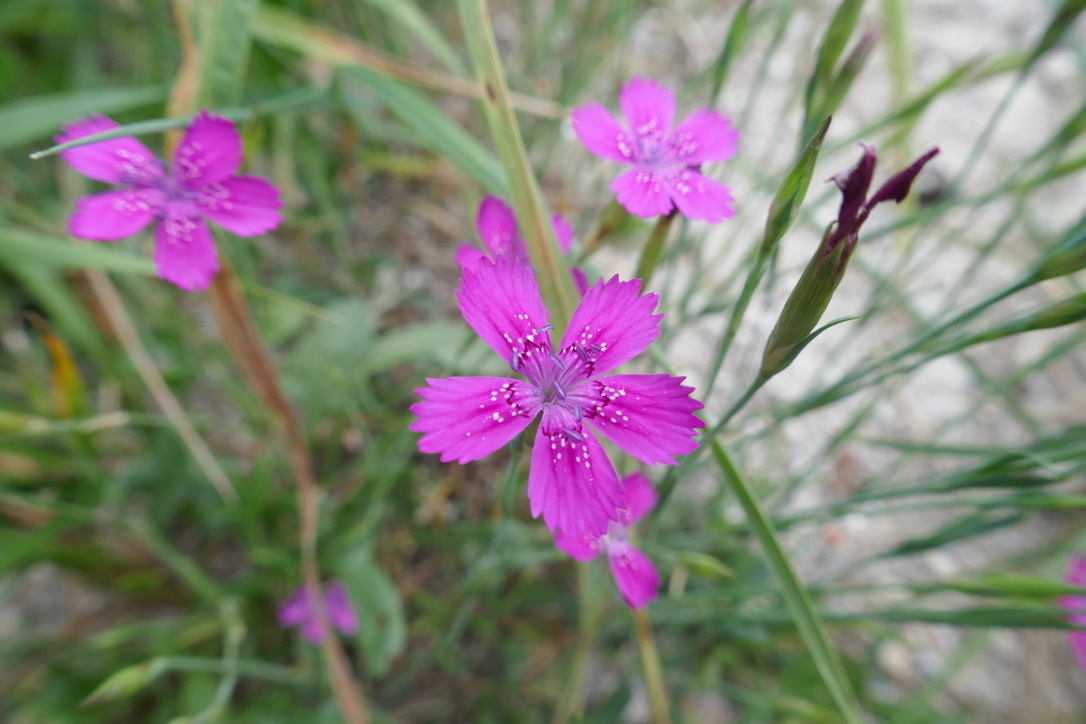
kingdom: Plantae
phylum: Tracheophyta
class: Magnoliopsida
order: Caryophyllales
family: Caryophyllaceae
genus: Dianthus
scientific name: Dianthus deltoides
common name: Maiden pink
